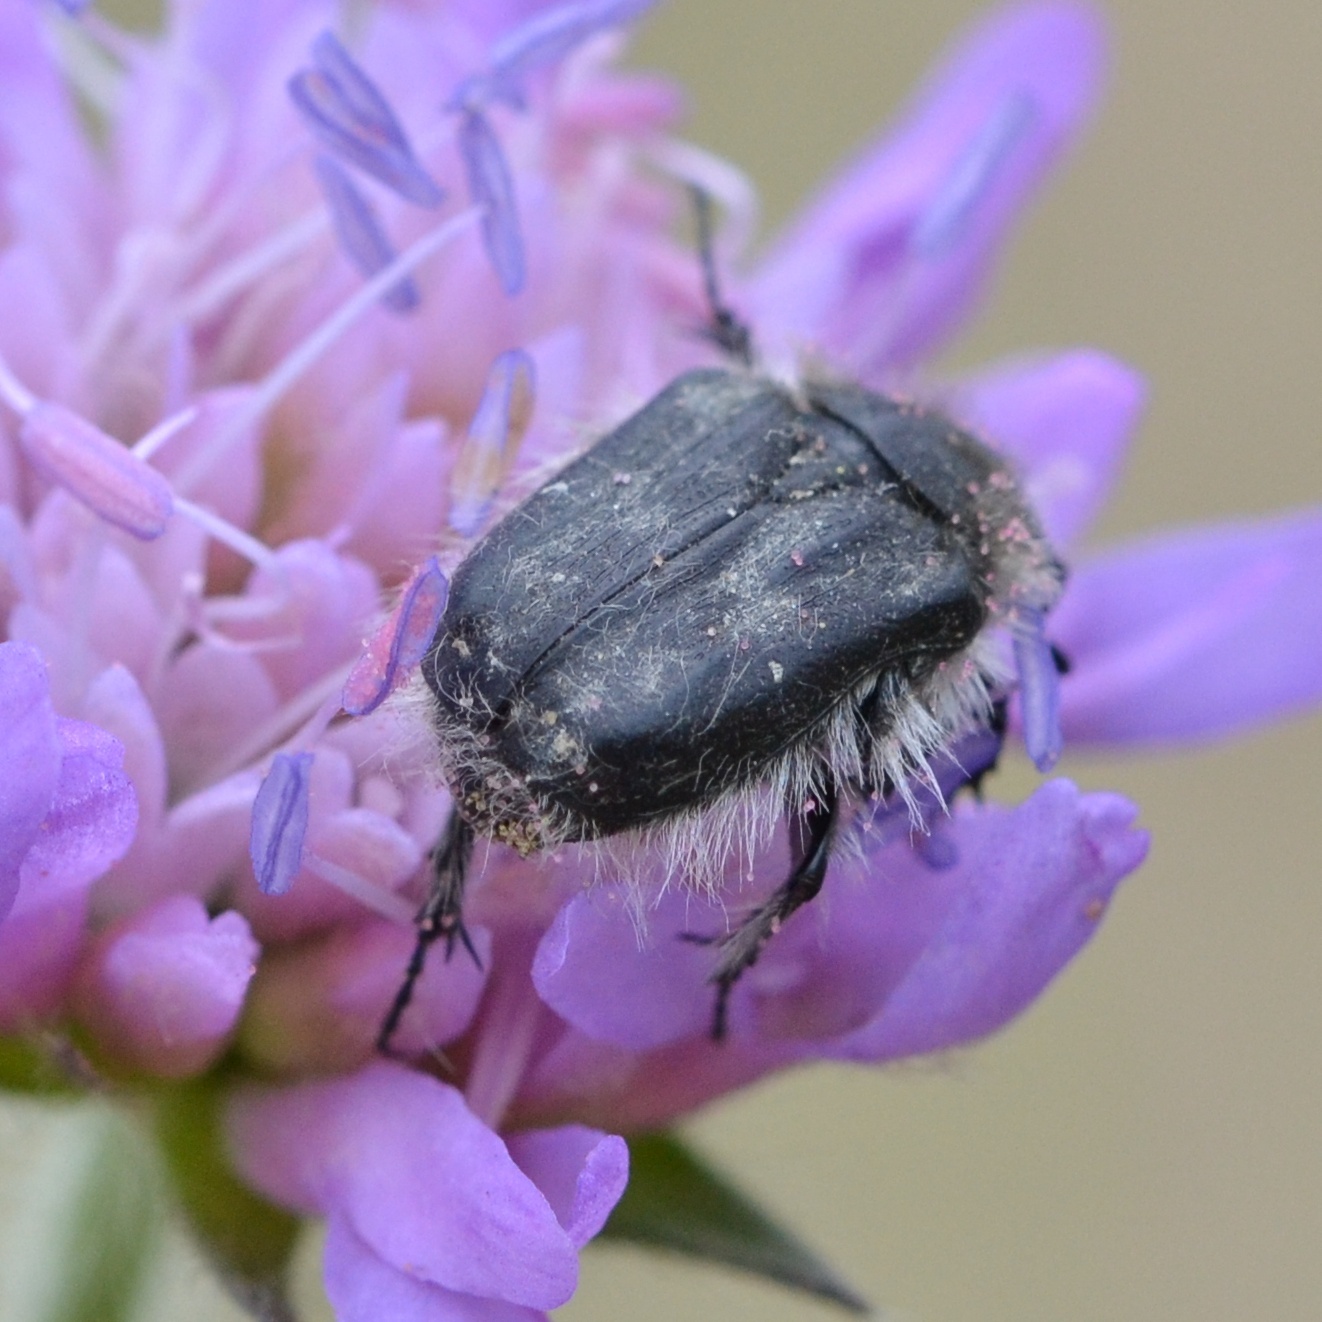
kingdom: Animalia
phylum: Arthropoda
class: Insecta
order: Coleoptera
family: Scarabaeidae
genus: Tropinota
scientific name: Tropinota hirta
